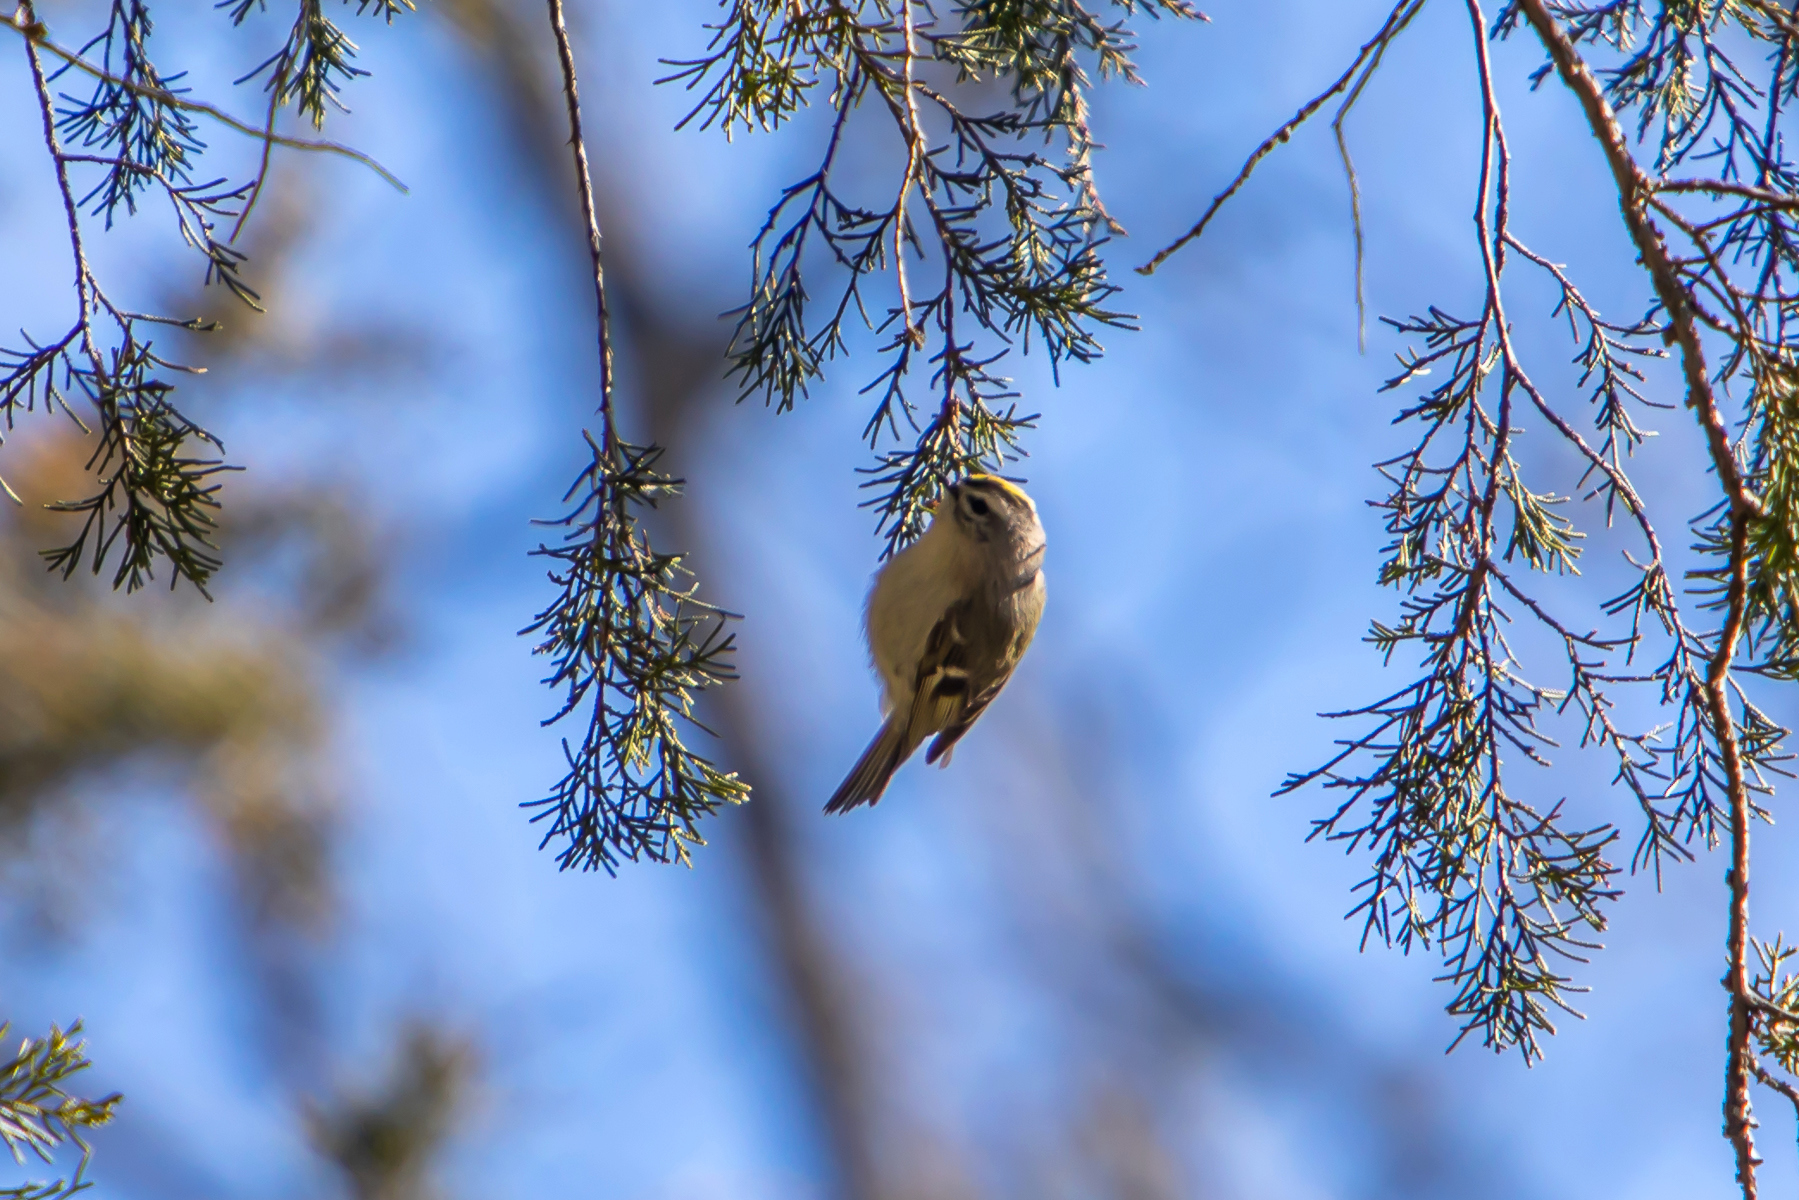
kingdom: Animalia
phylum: Chordata
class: Aves
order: Passeriformes
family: Regulidae
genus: Regulus
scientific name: Regulus satrapa
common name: Golden-crowned kinglet
